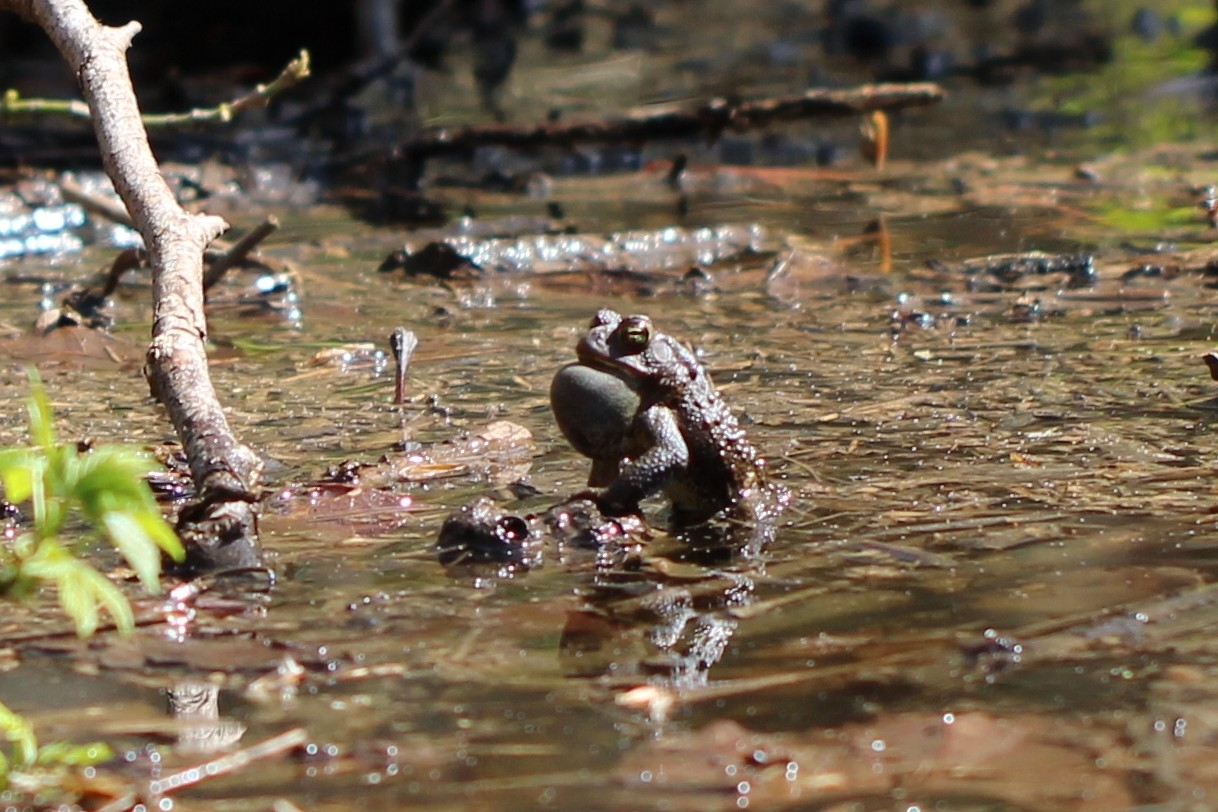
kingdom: Animalia
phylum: Chordata
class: Amphibia
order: Anura
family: Bufonidae
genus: Anaxyrus
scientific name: Anaxyrus americanus
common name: American toad
